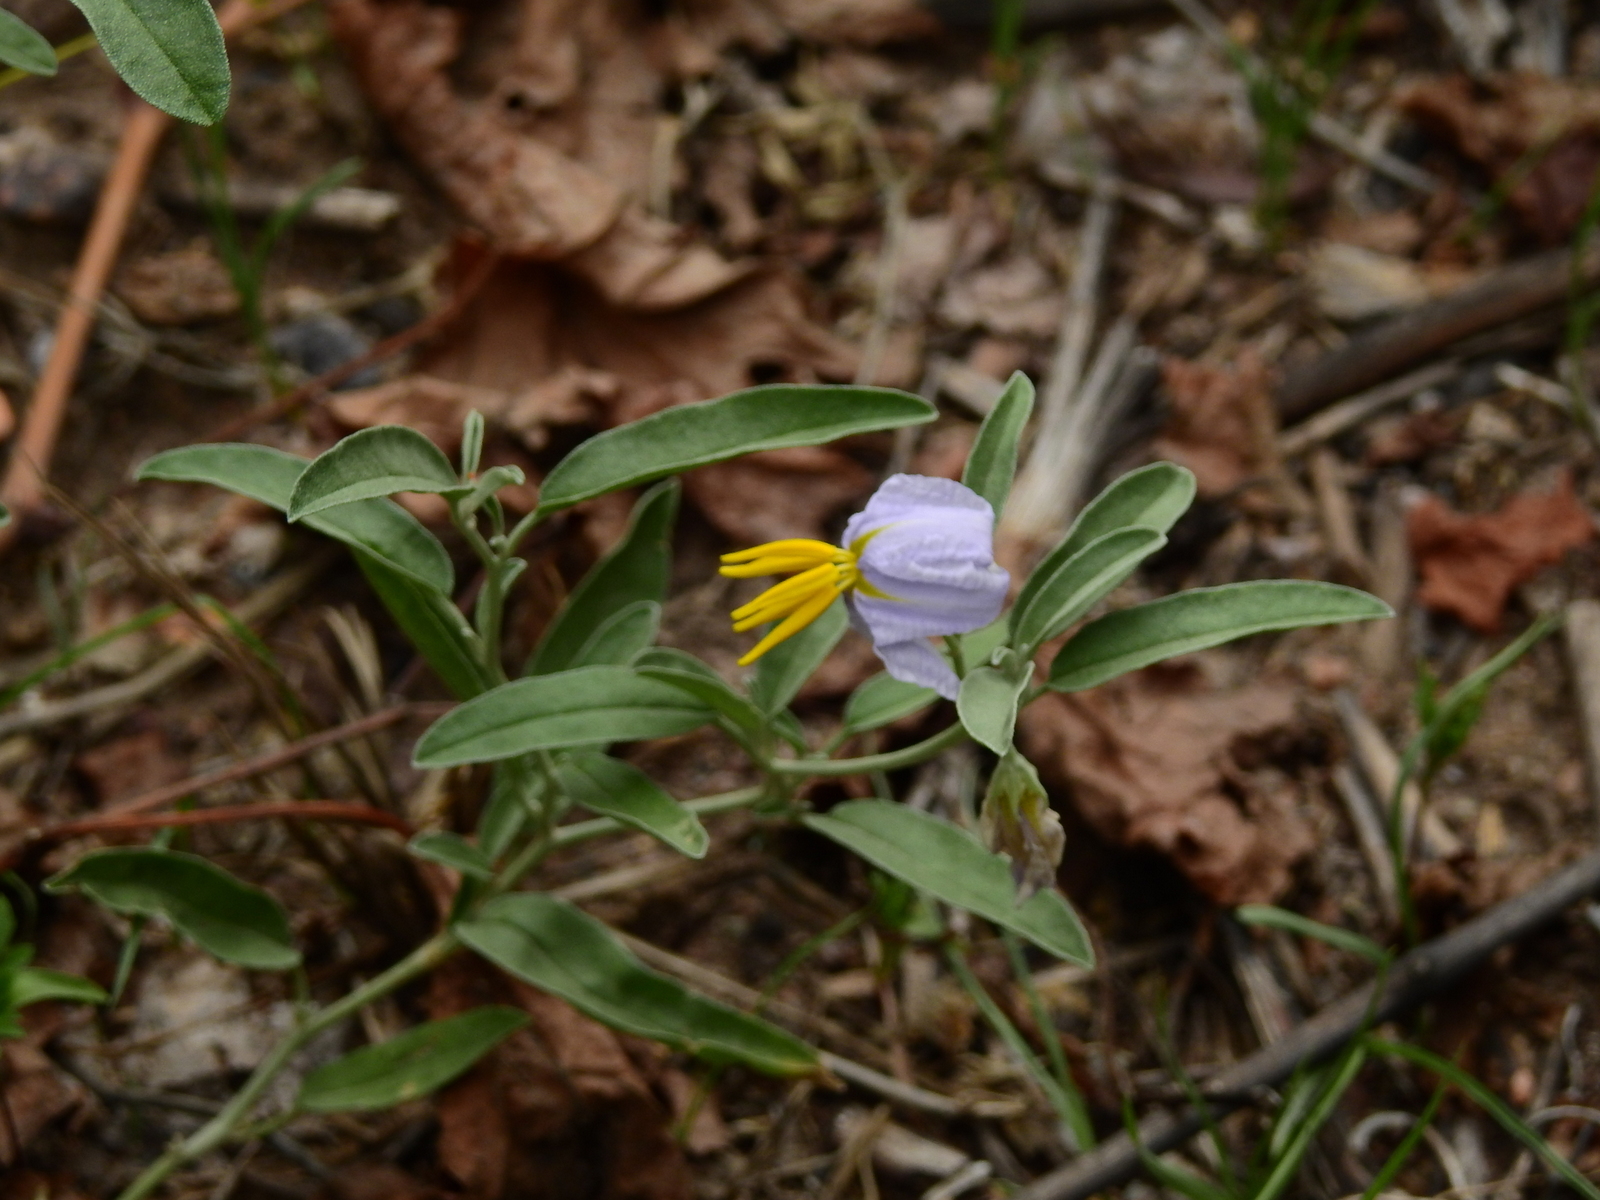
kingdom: Plantae
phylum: Tracheophyta
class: Magnoliopsida
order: Solanales
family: Solanaceae
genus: Solanum
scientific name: Solanum elaeagnifolium
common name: Silverleaf nightshade
